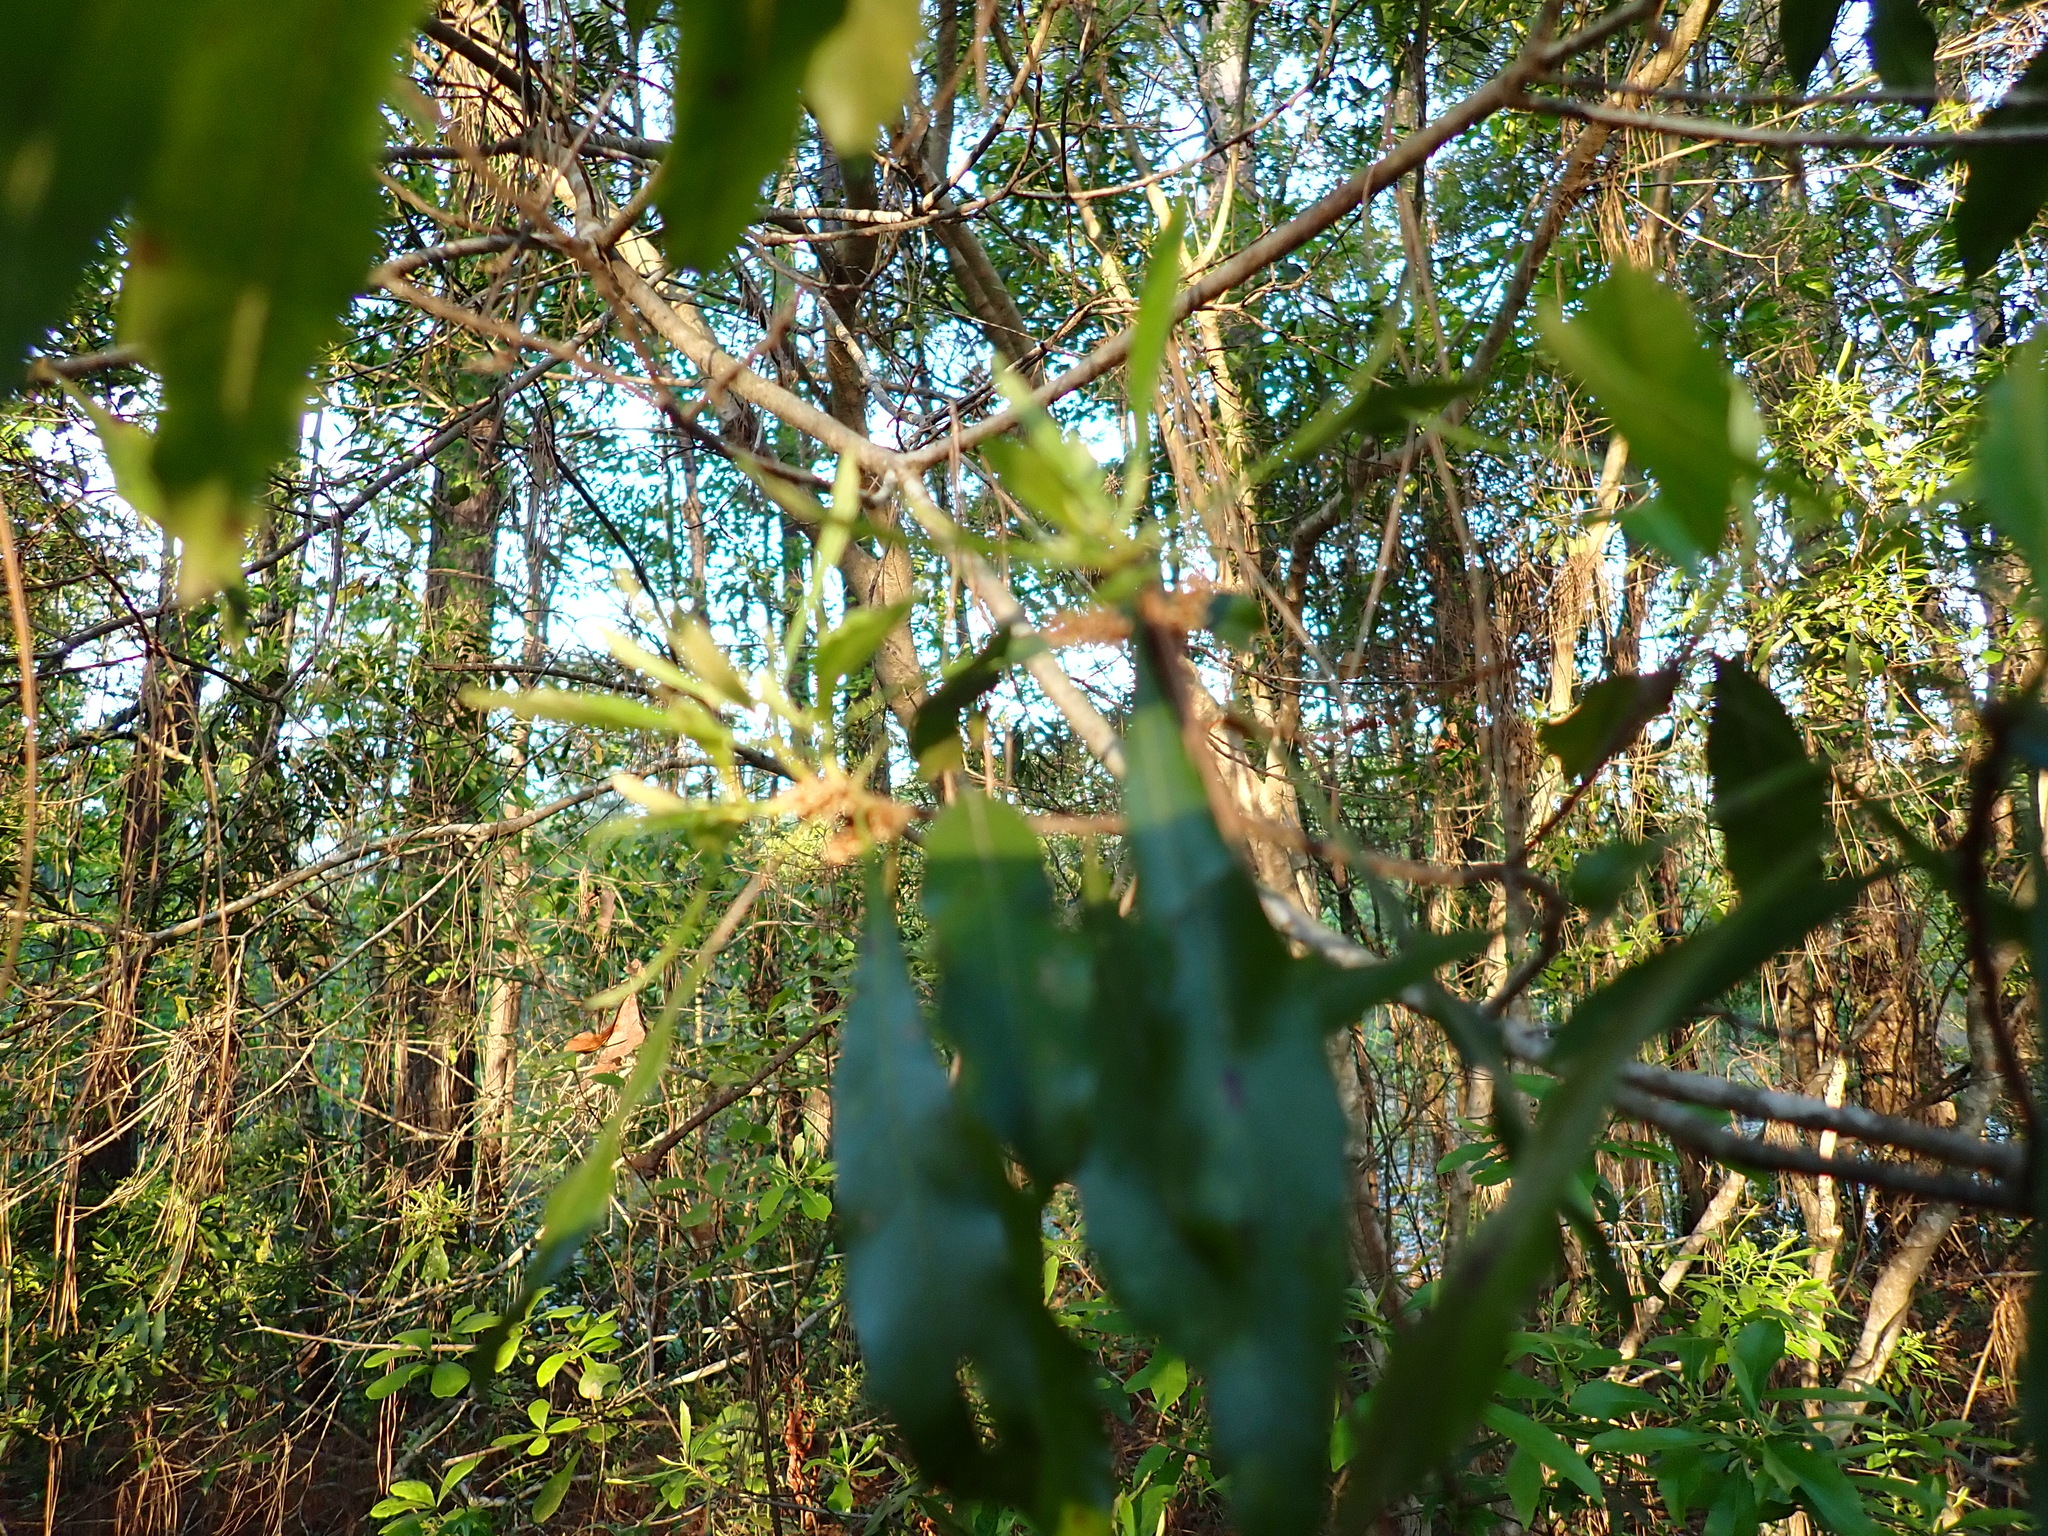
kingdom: Plantae
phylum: Tracheophyta
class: Magnoliopsida
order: Fagales
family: Myricaceae
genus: Morella
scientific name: Morella cerifera
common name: Wax myrtle
